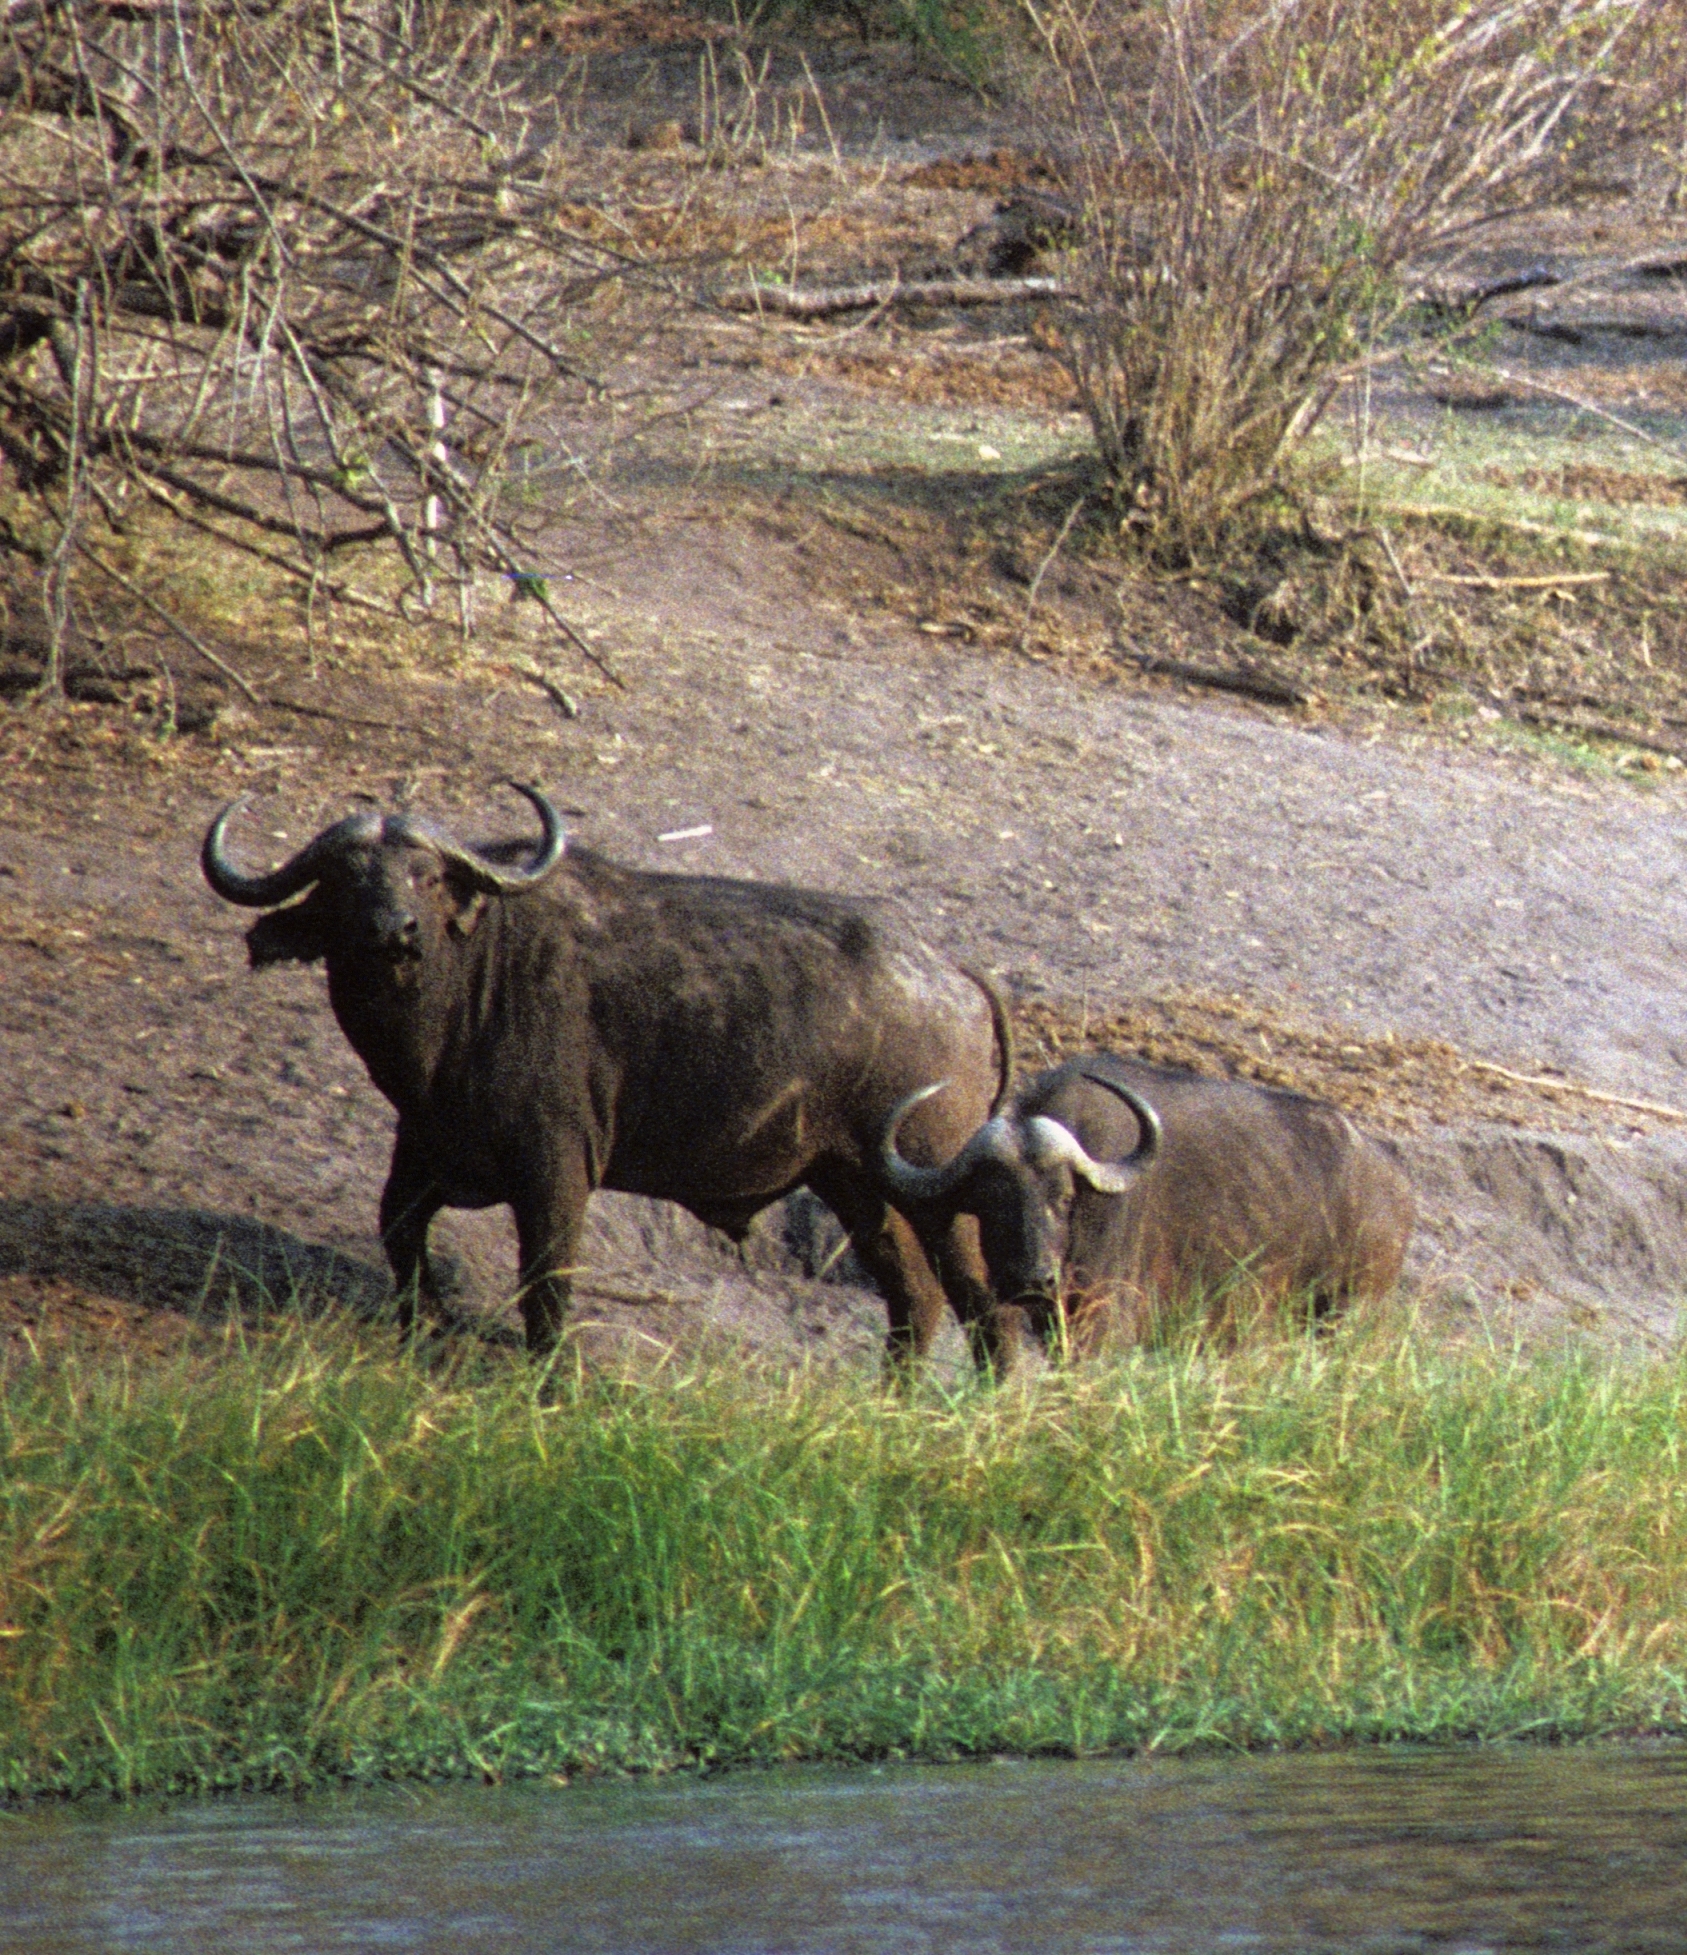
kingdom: Animalia
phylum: Chordata
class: Mammalia
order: Artiodactyla
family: Bovidae
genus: Syncerus
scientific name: Syncerus caffer
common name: African buffalo
